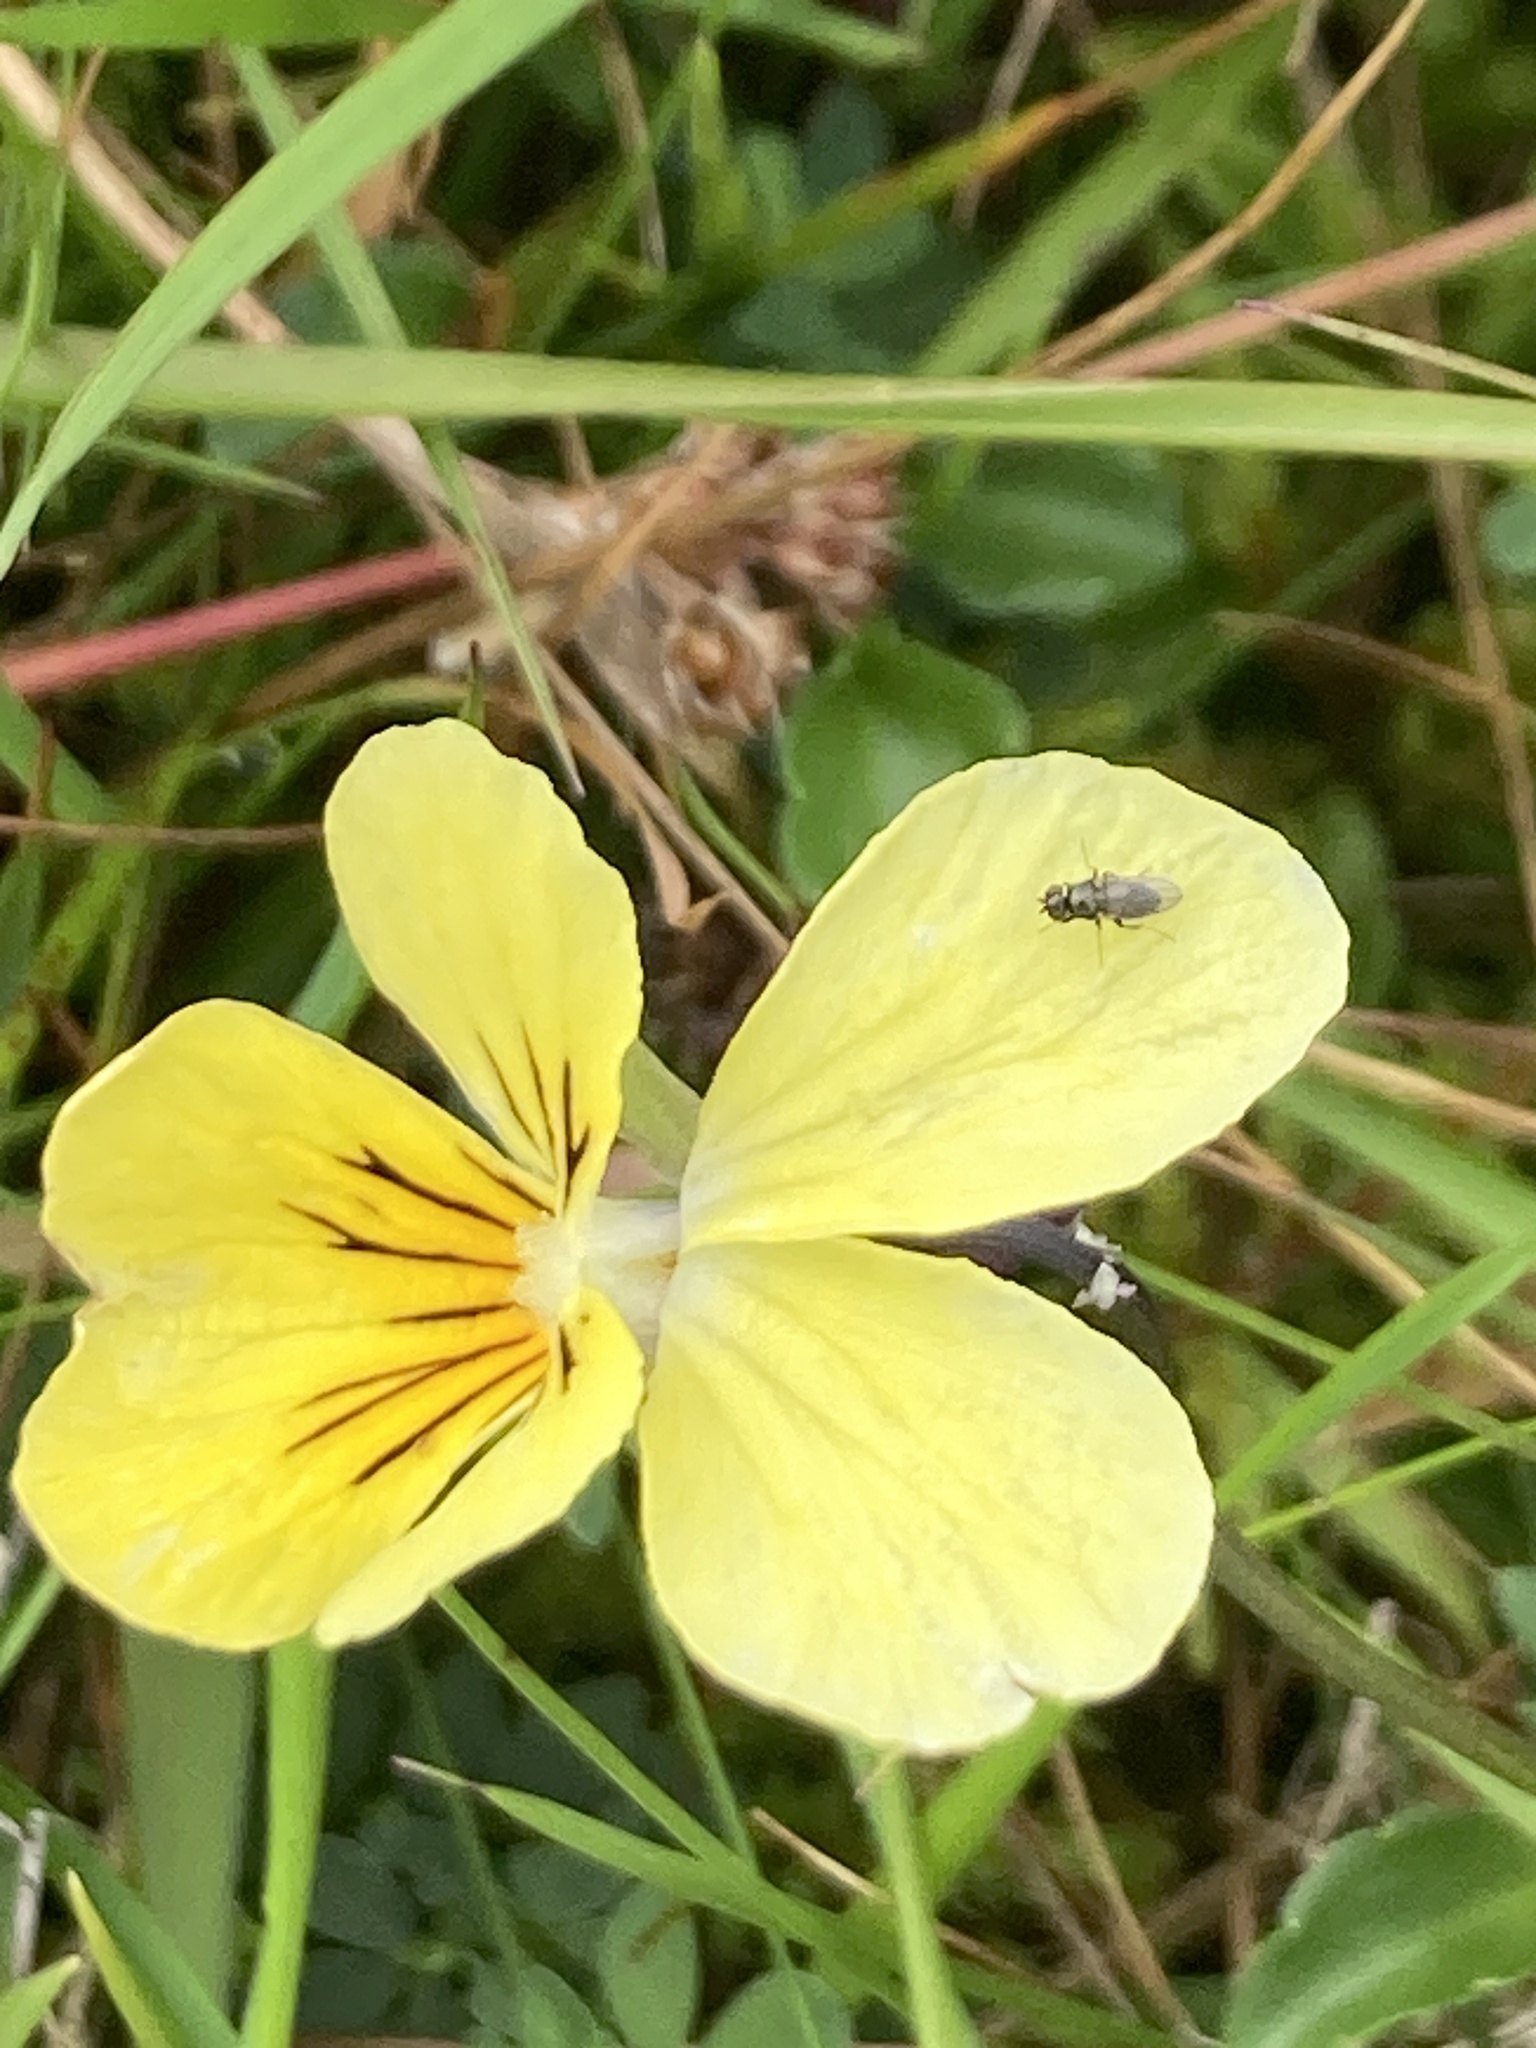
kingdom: Plantae
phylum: Tracheophyta
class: Magnoliopsida
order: Malpighiales
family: Violaceae
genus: Viola
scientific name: Viola lutea
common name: Mountain pansy
